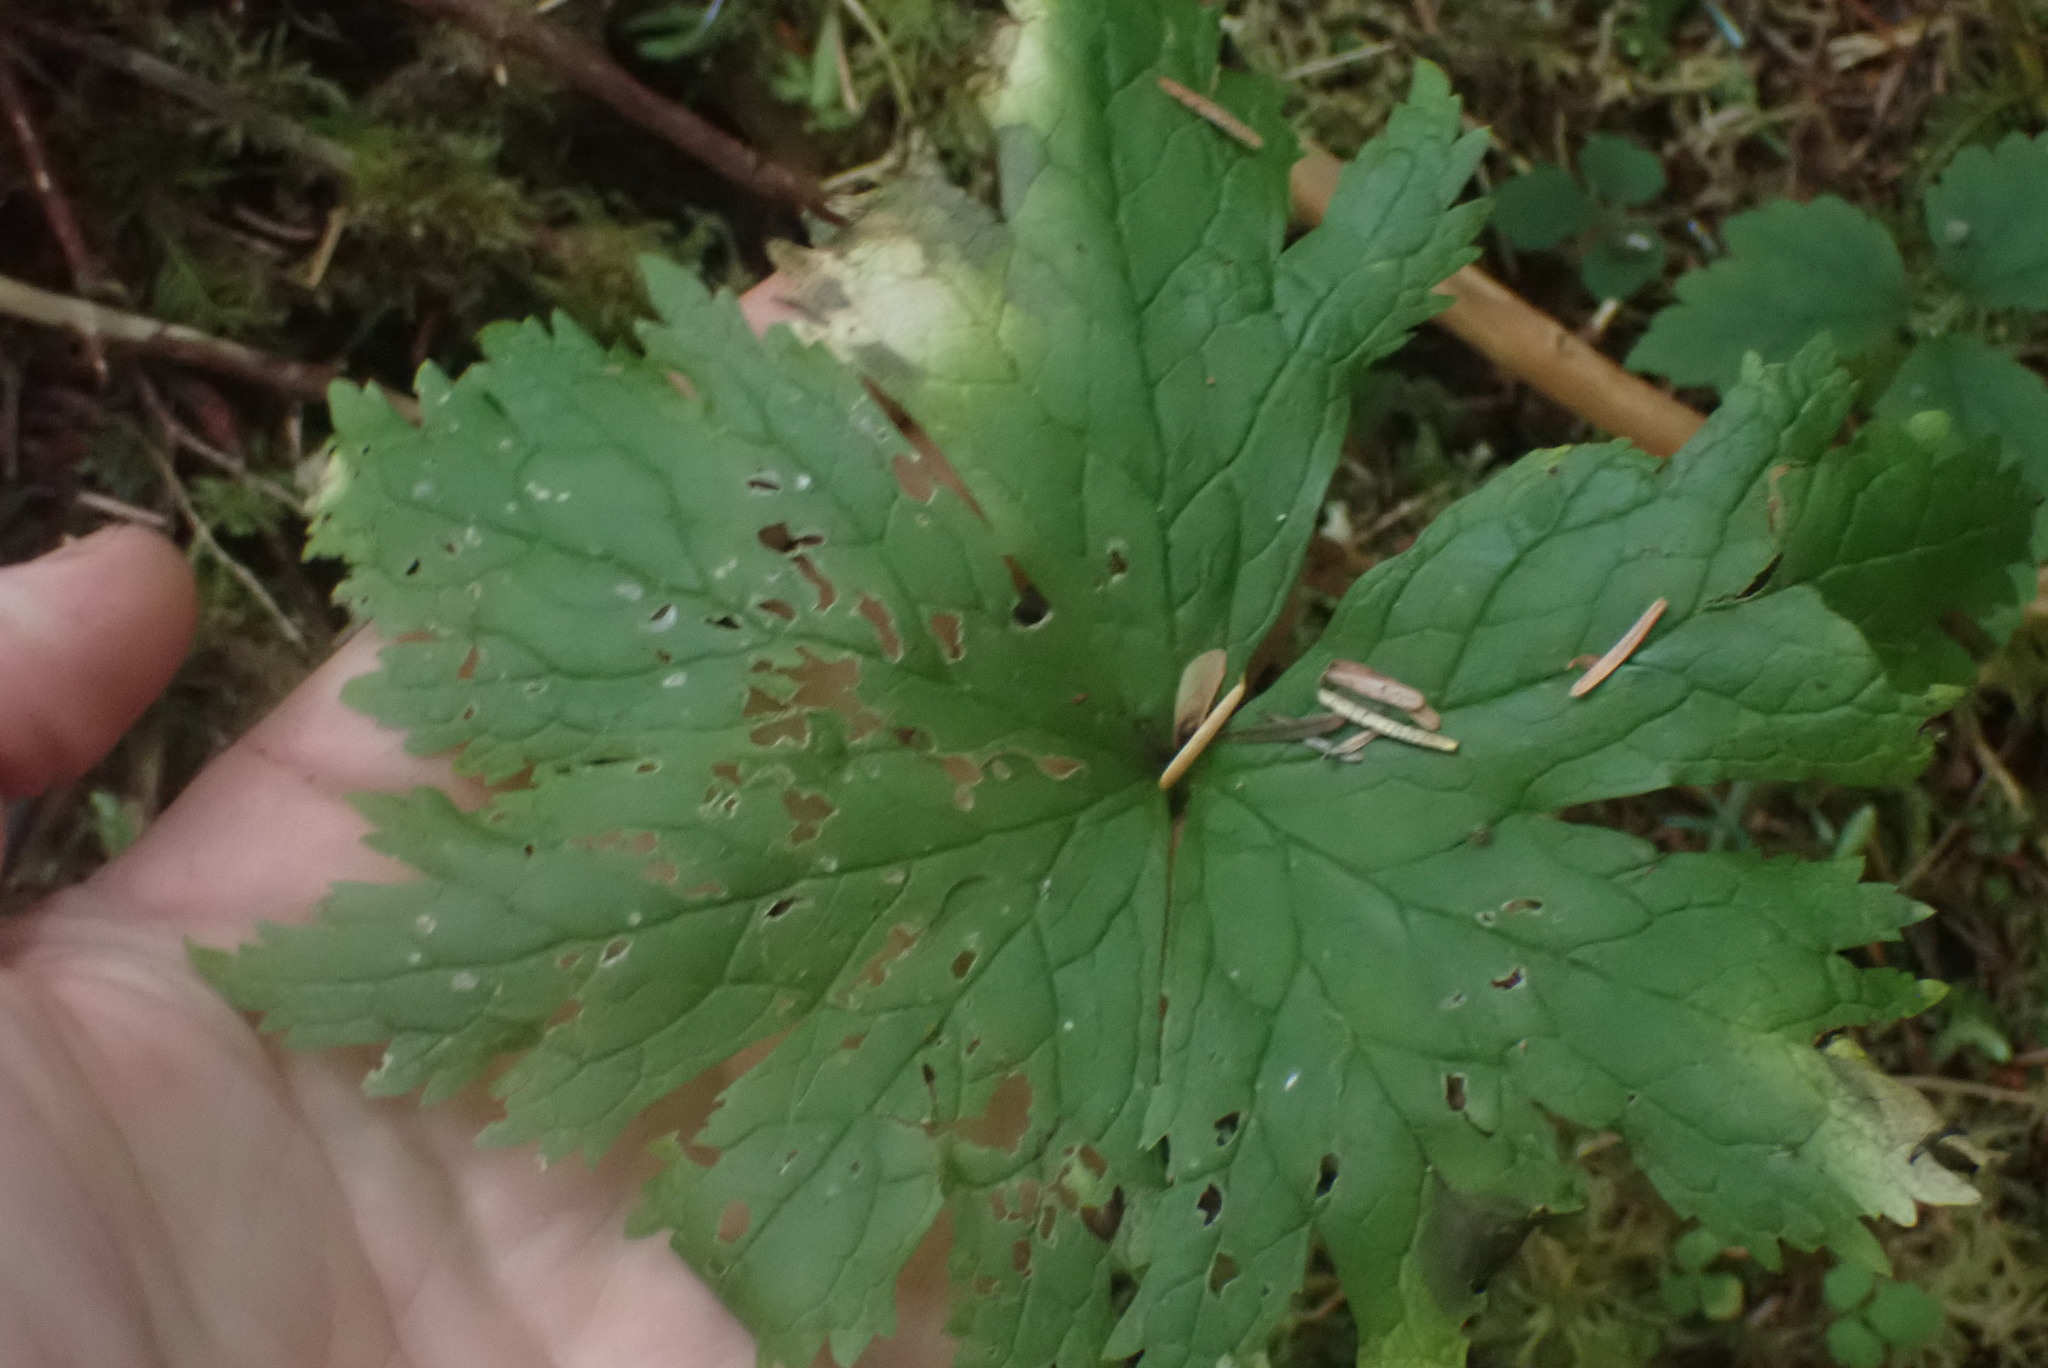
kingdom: Plantae
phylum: Tracheophyta
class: Magnoliopsida
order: Ranunculales
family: Ranunculaceae
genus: Trautvetteria
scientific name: Trautvetteria carolinensis
